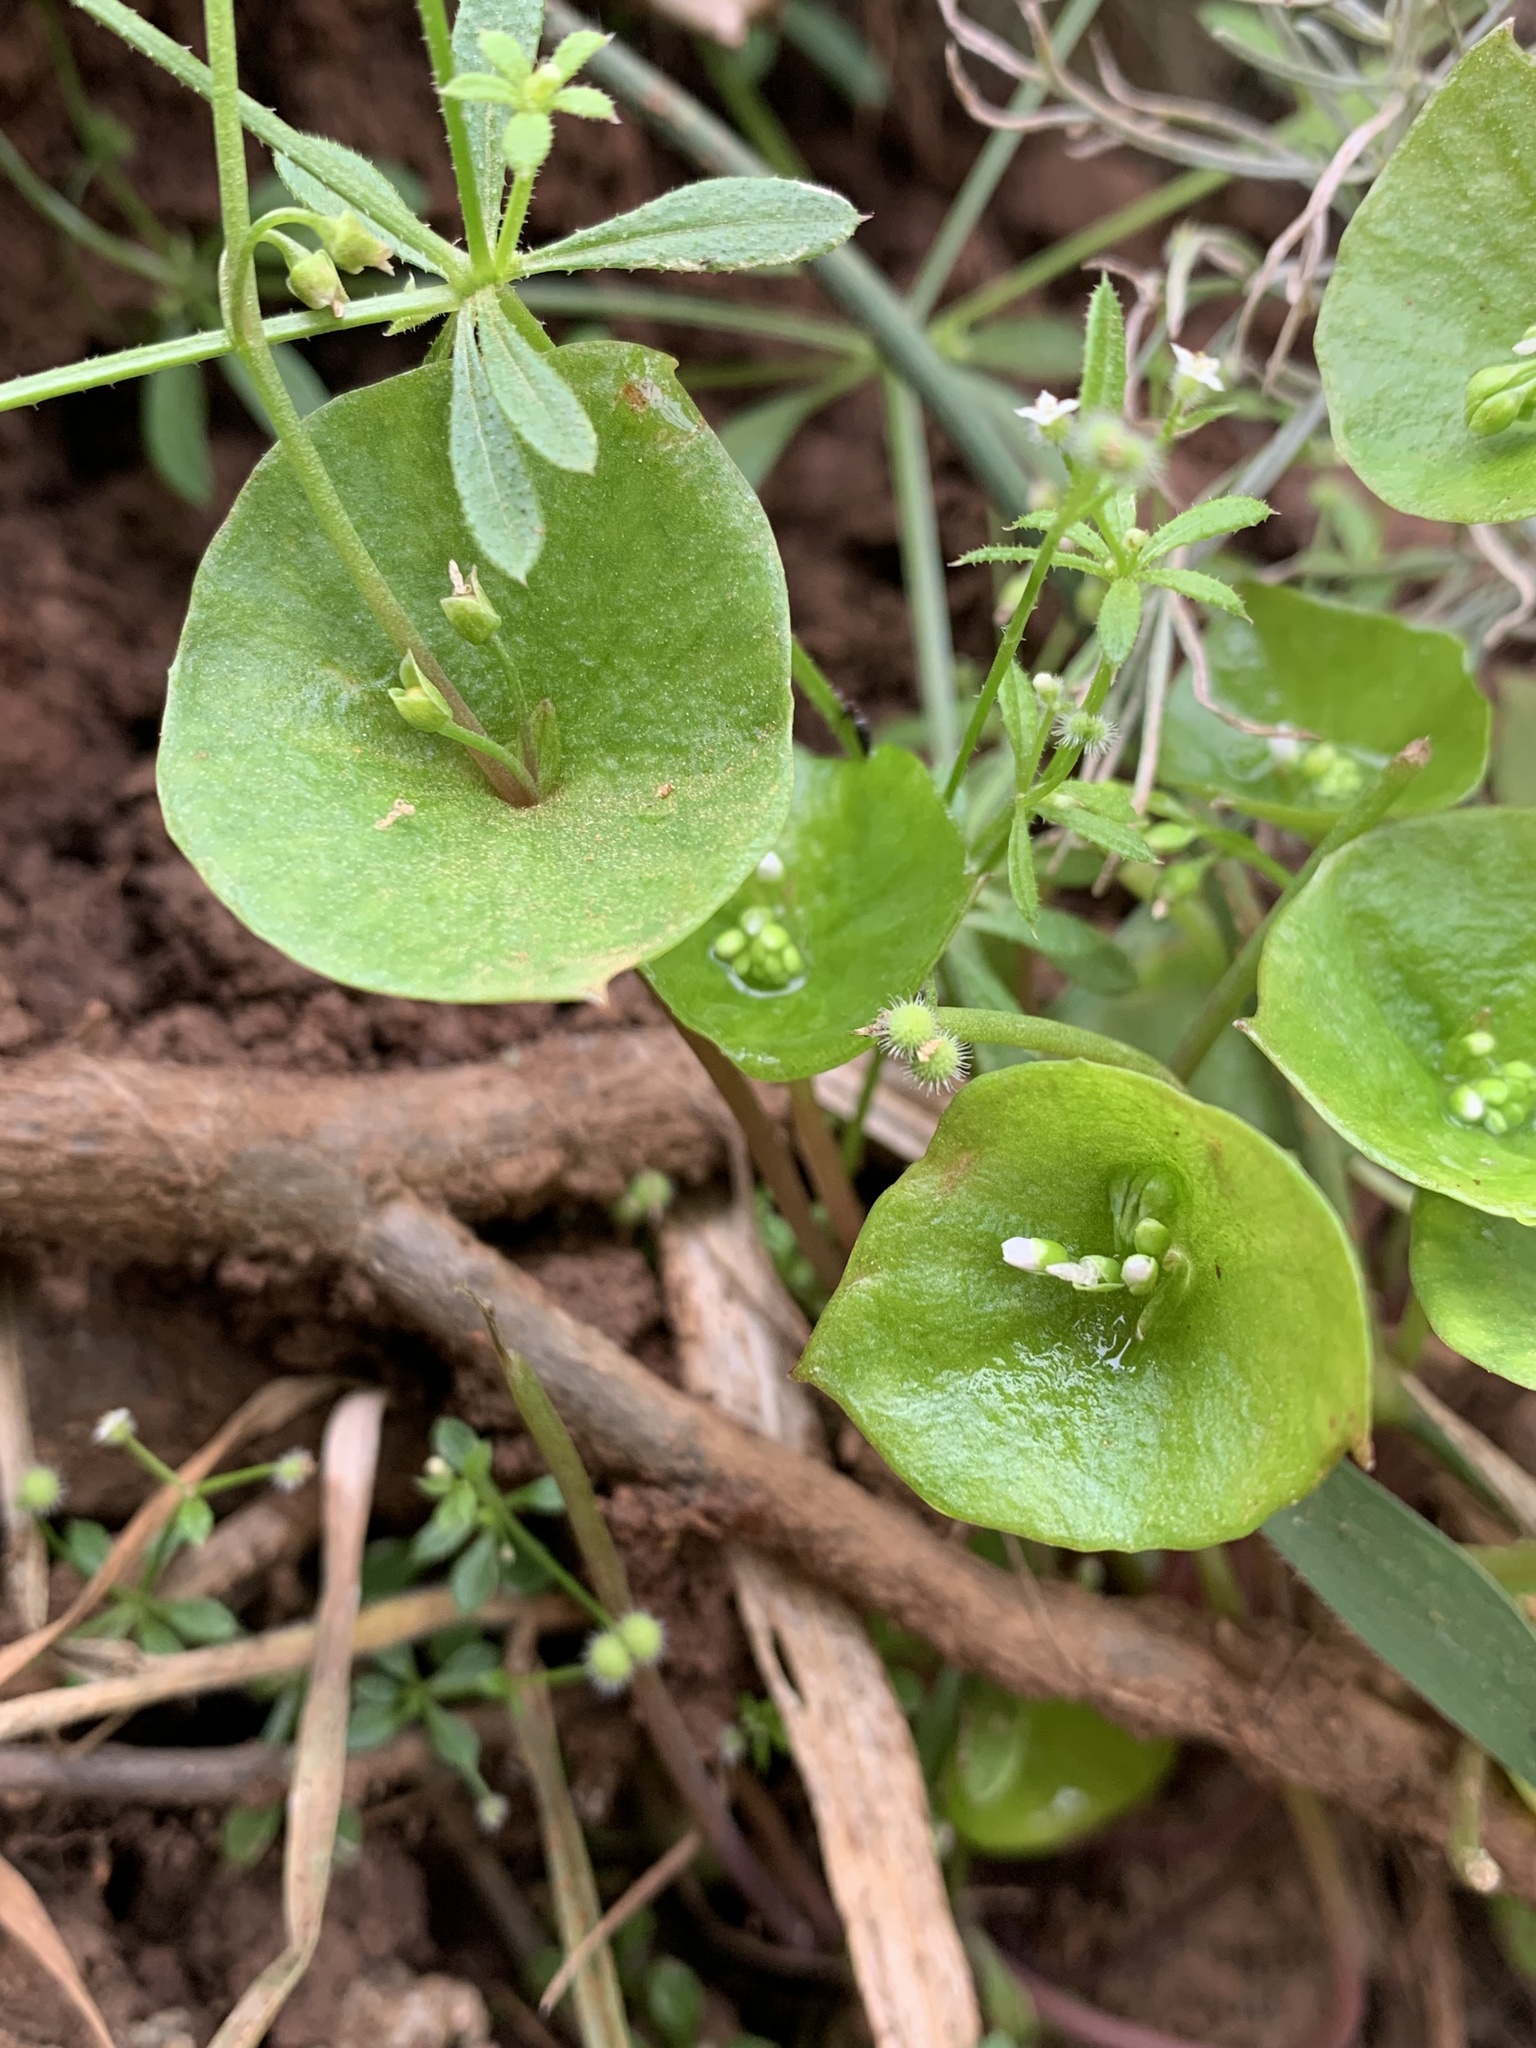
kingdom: Plantae
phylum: Tracheophyta
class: Magnoliopsida
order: Caryophyllales
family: Montiaceae
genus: Claytonia
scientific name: Claytonia perfoliata
